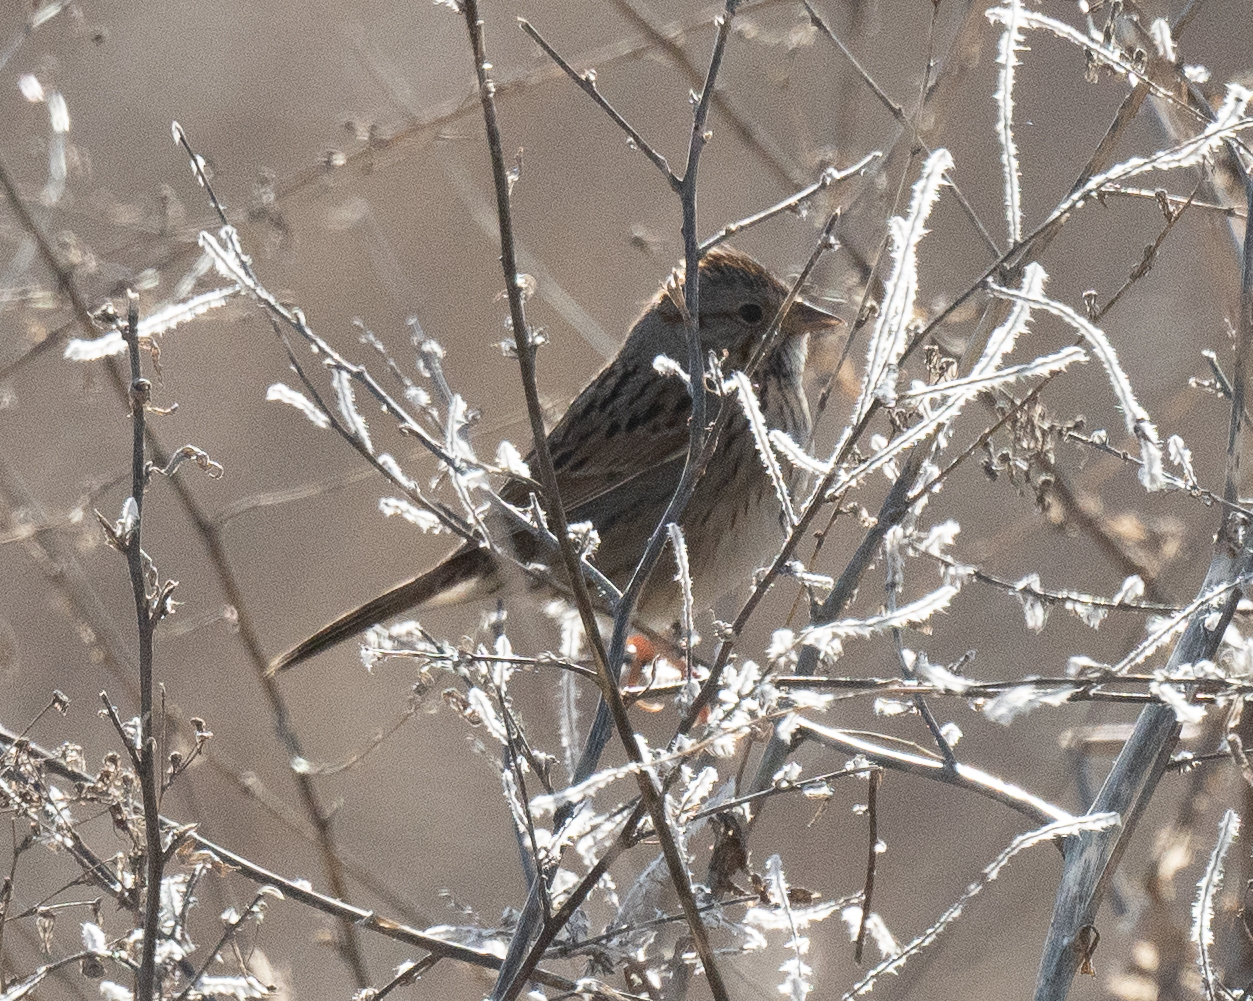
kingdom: Animalia
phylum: Chordata
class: Aves
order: Passeriformes
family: Passerellidae
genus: Melospiza
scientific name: Melospiza lincolnii
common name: Lincoln's sparrow
